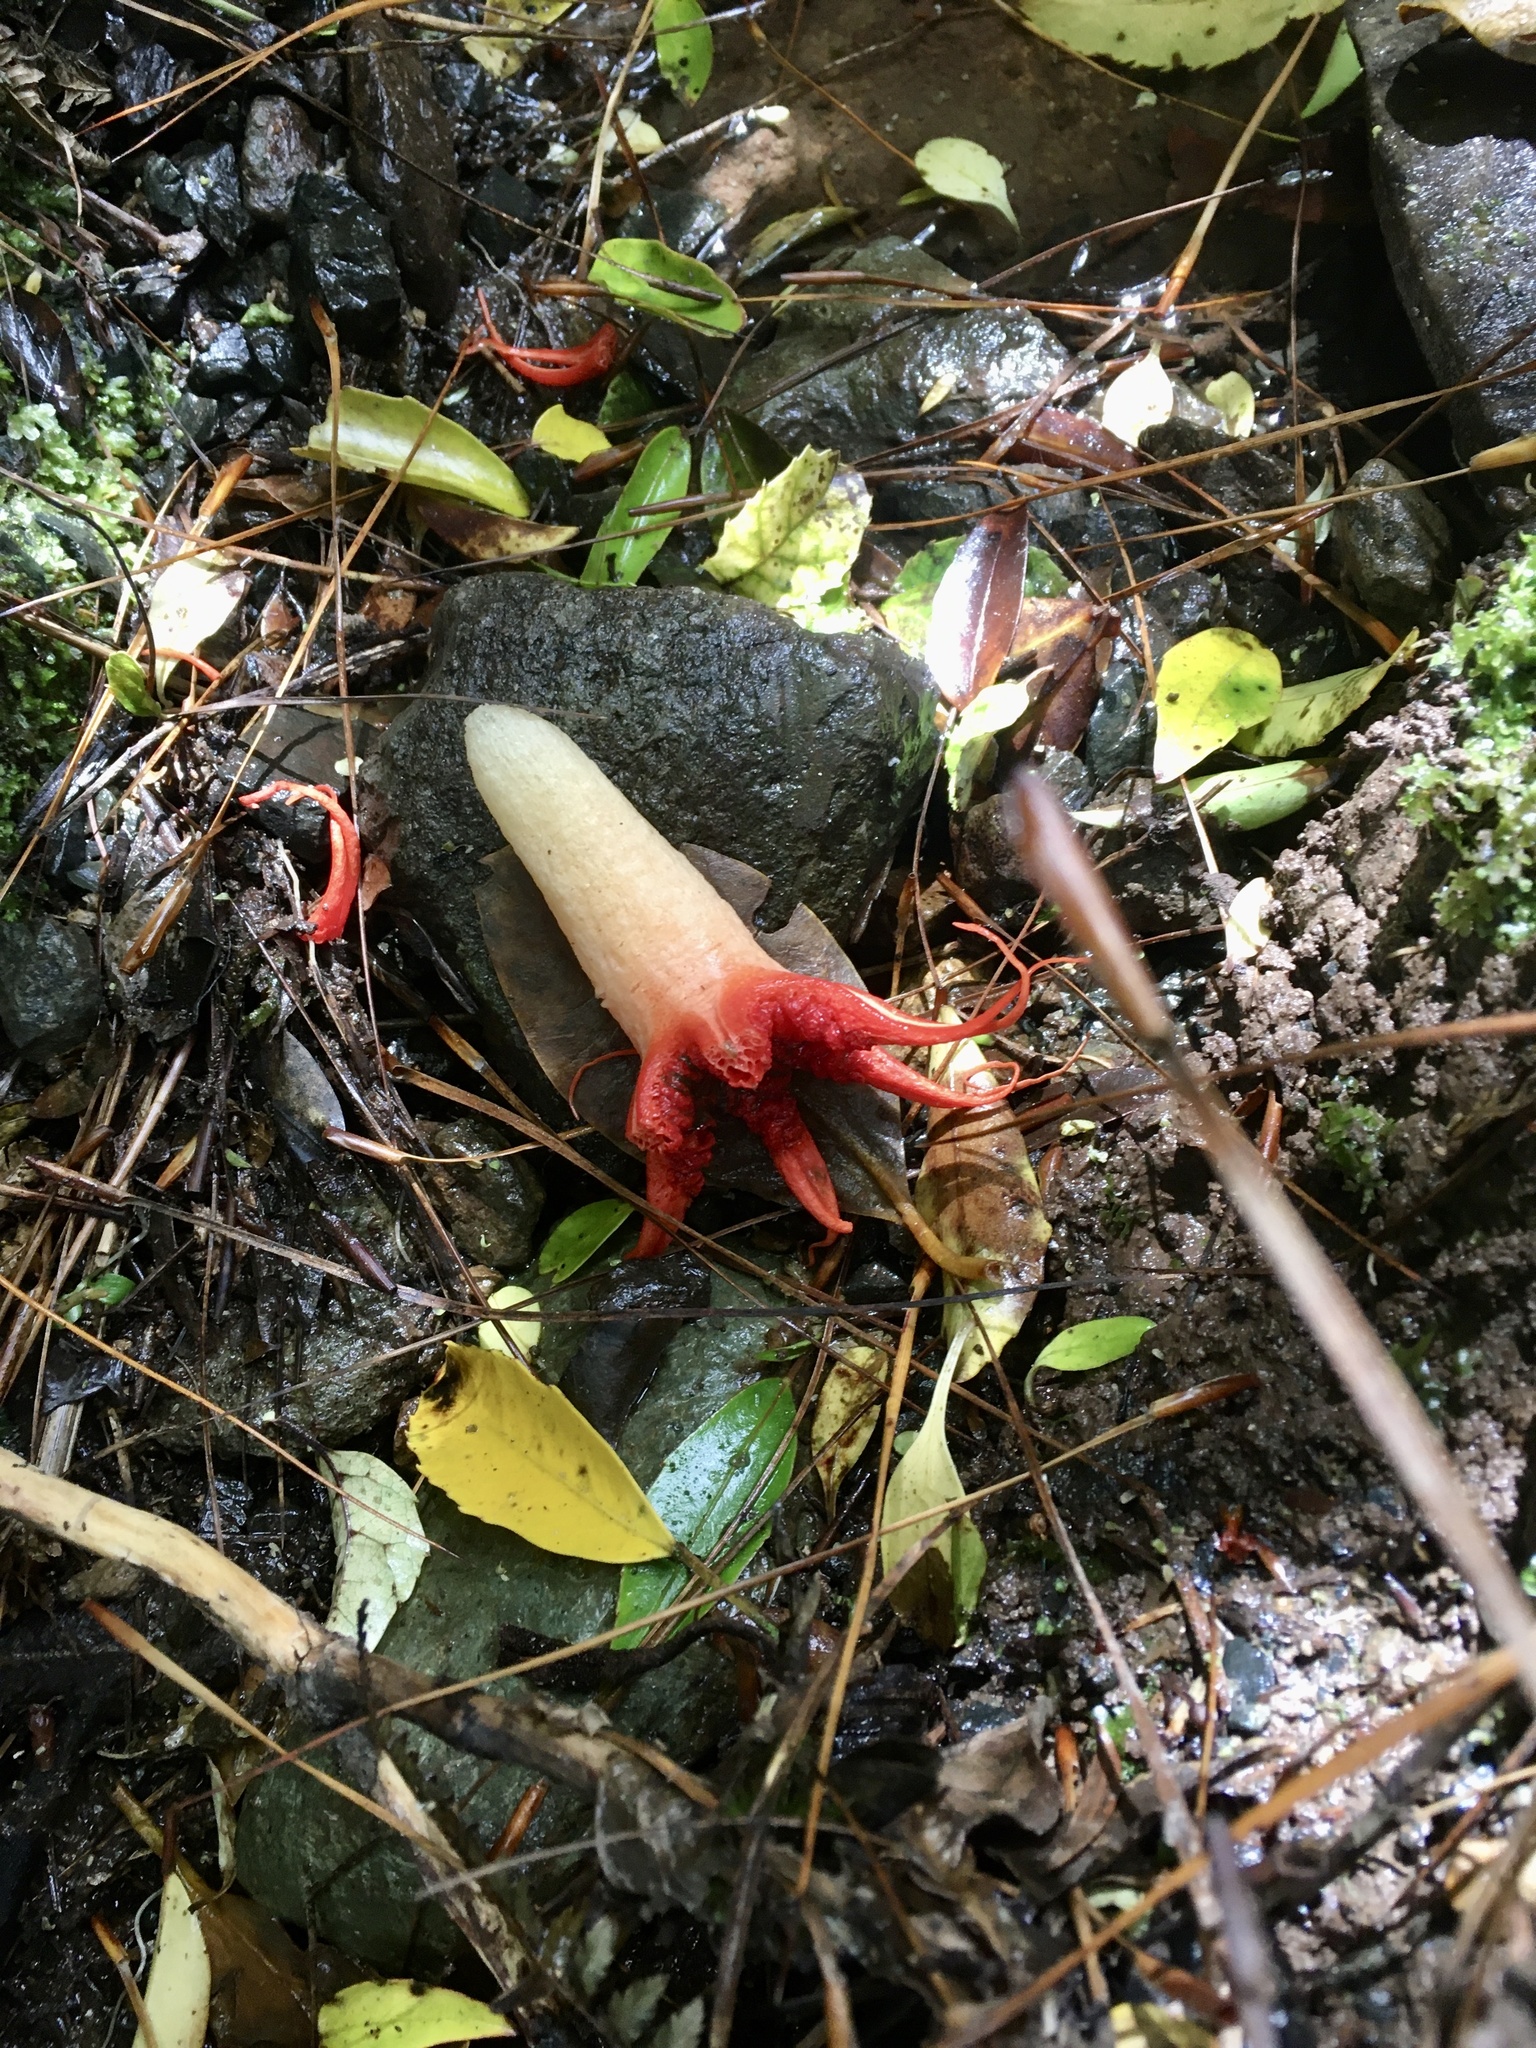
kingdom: Fungi
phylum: Basidiomycota
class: Agaricomycetes
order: Phallales
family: Phallaceae
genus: Aseroe
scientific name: Aseroe rubra
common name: Starfish fungus
